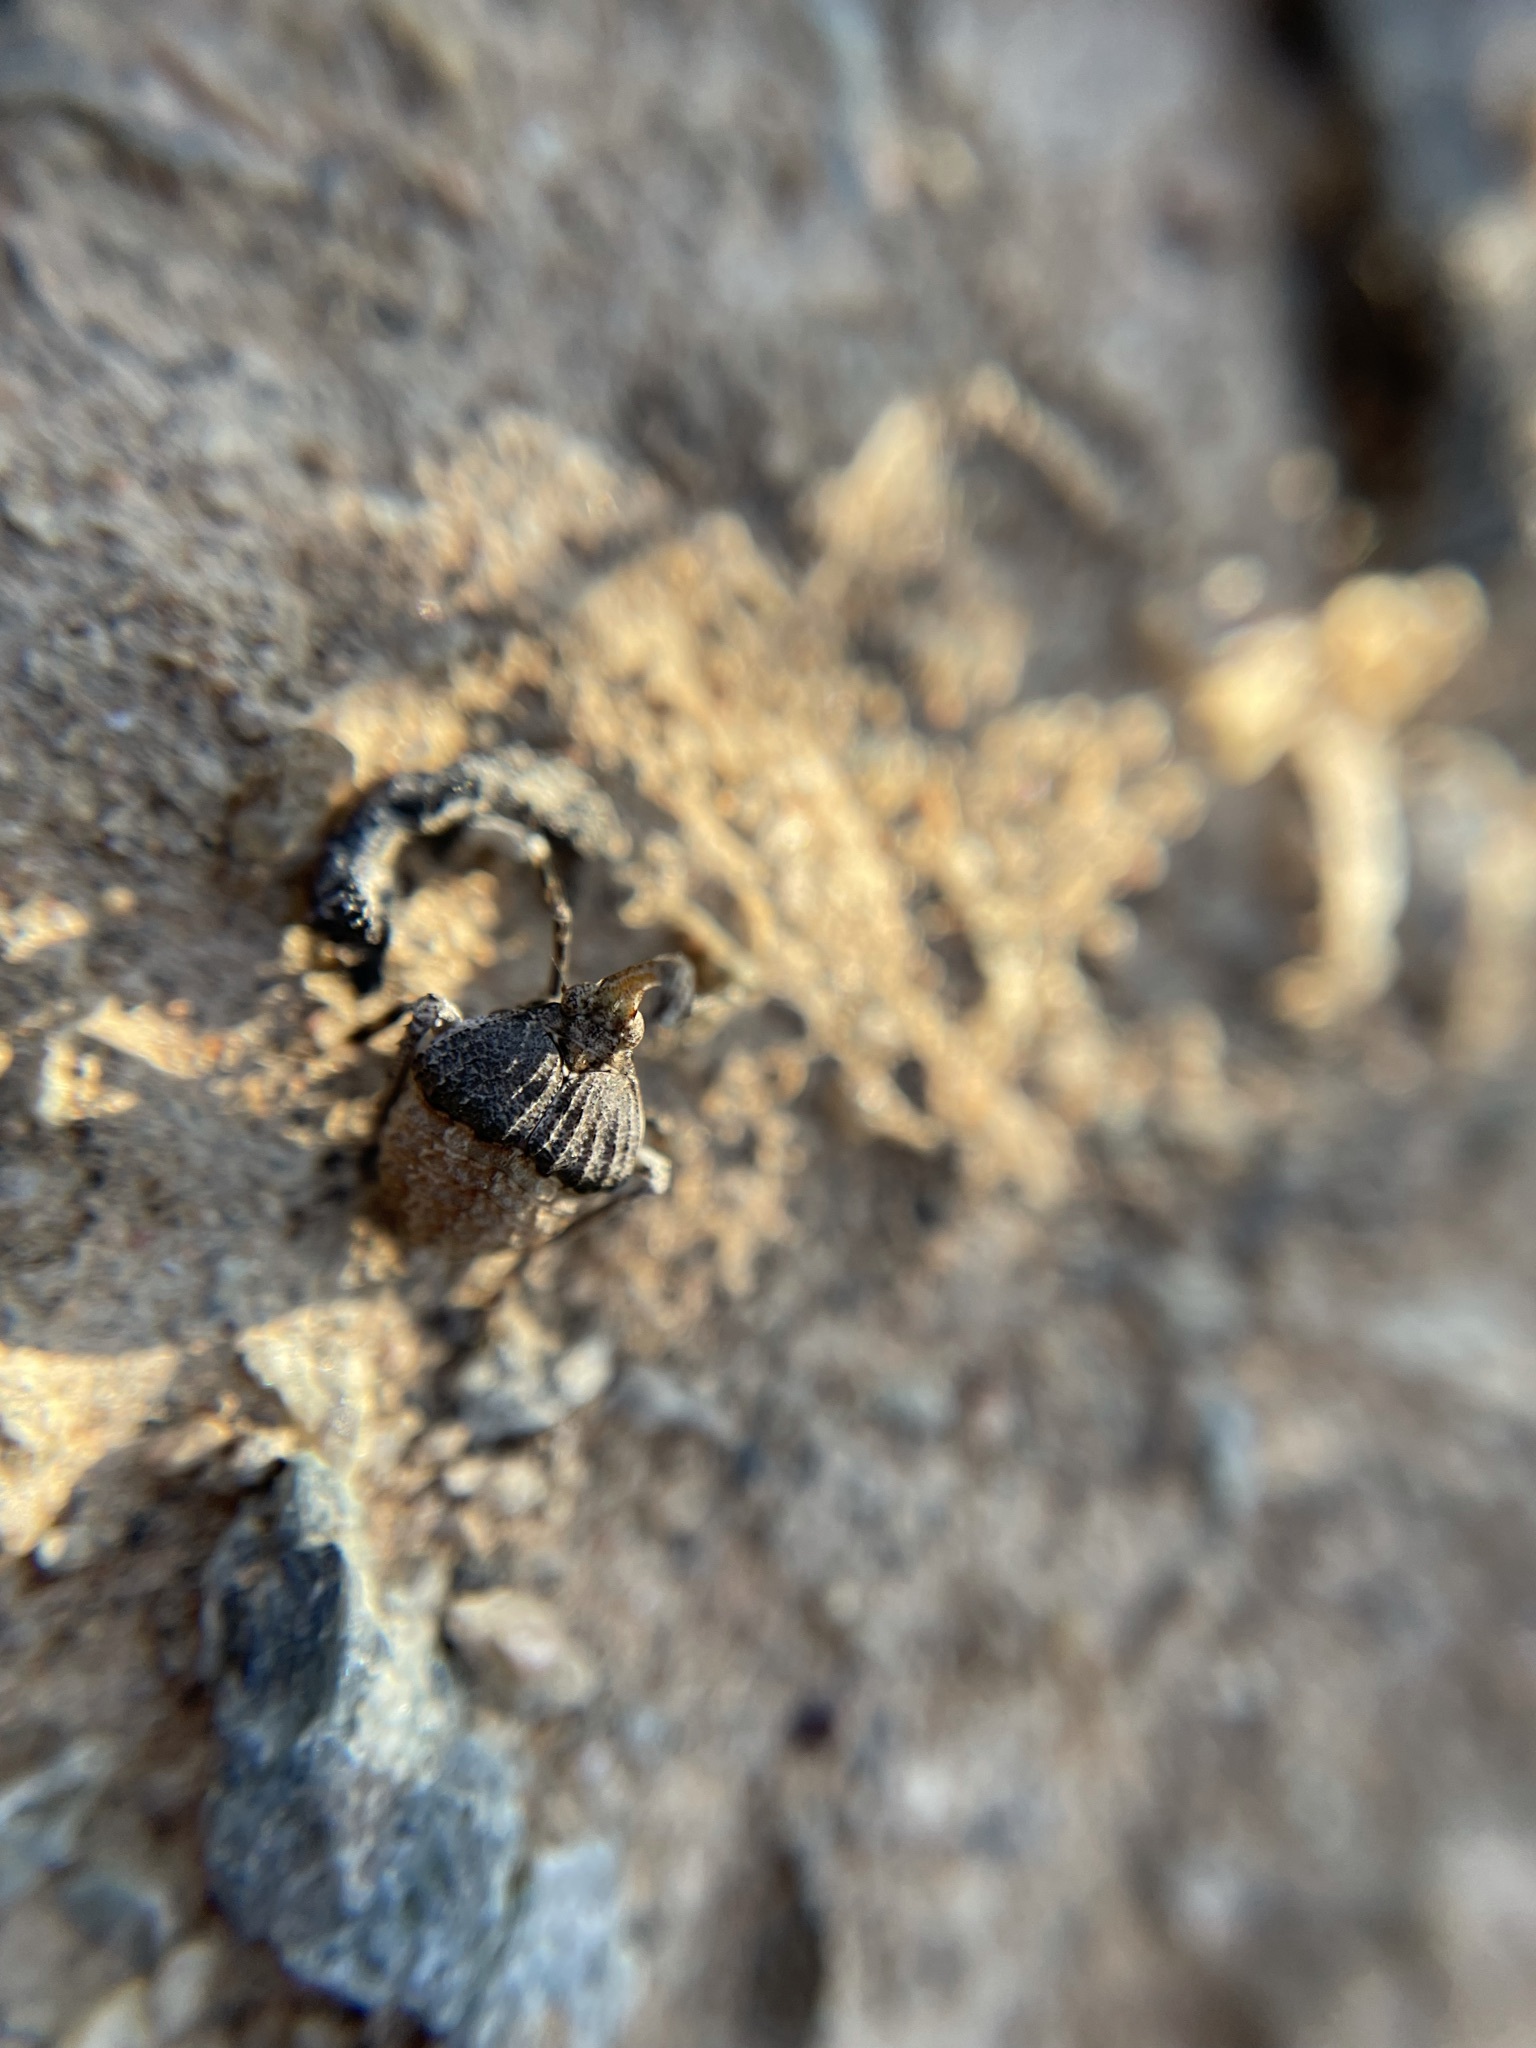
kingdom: Animalia
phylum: Arthropoda
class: Insecta
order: Hemiptera
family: Fulgoridae
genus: Capenopsis
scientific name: Capenopsis horvathi
